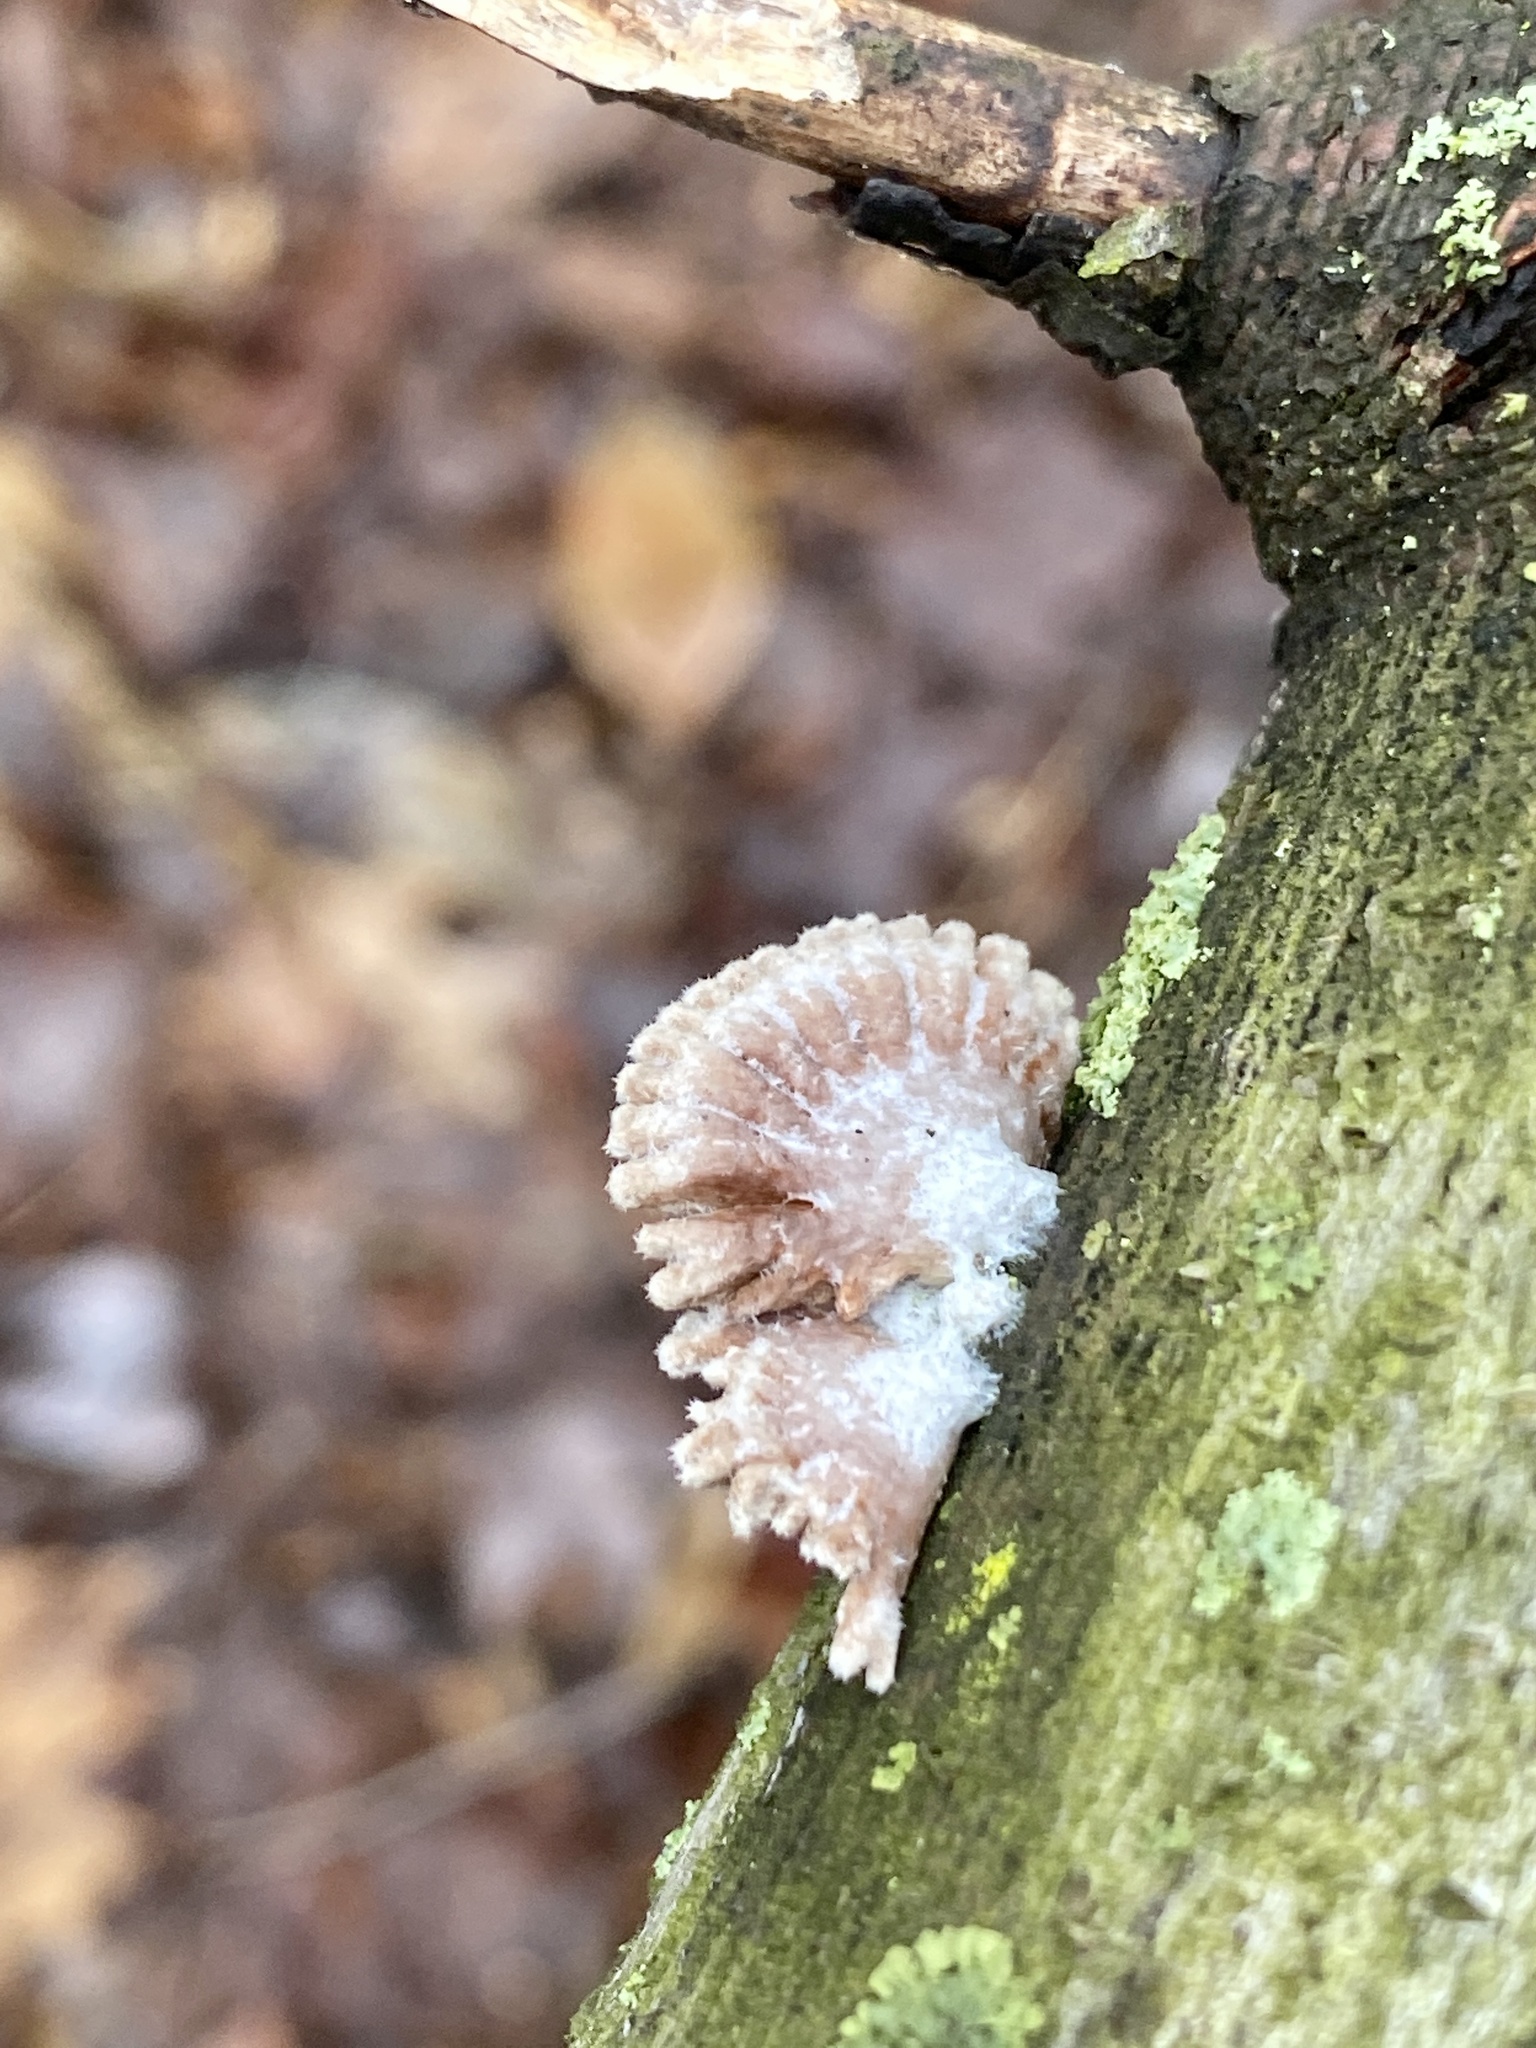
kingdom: Fungi
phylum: Basidiomycota
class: Agaricomycetes
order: Agaricales
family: Schizophyllaceae
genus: Schizophyllum
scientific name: Schizophyllum commune
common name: Common porecrust
